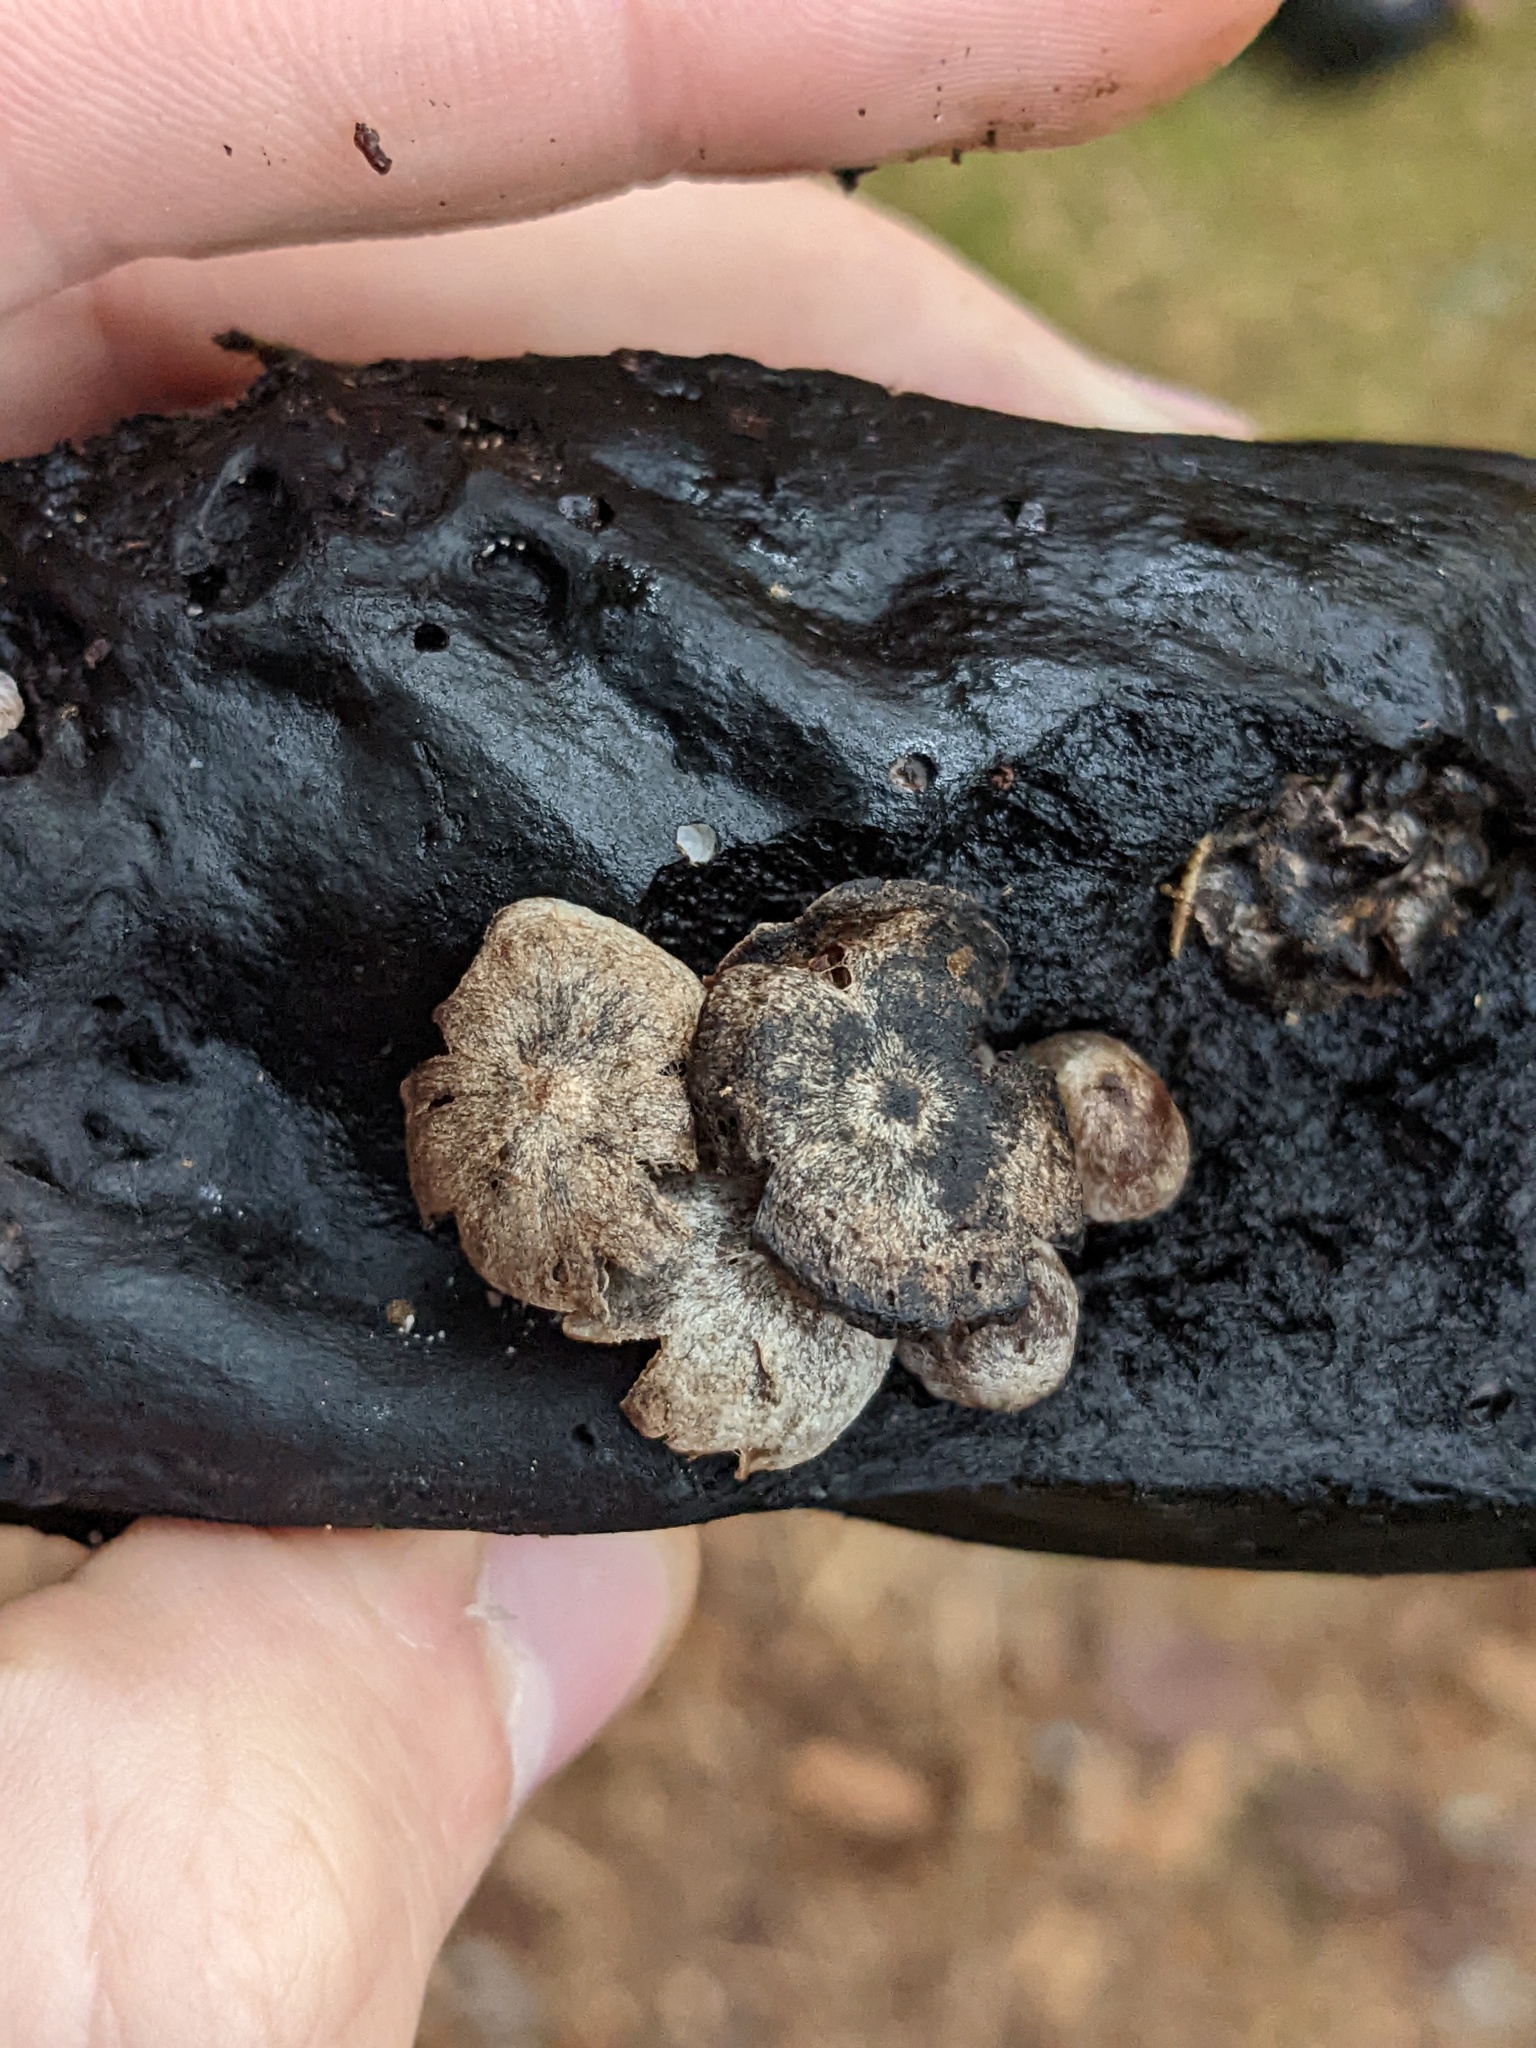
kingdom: Fungi
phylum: Basidiomycota
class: Agaricomycetes
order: Agaricales
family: Lyophyllaceae
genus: Asterophora
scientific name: Asterophora parasitica
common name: Silky piggyback
